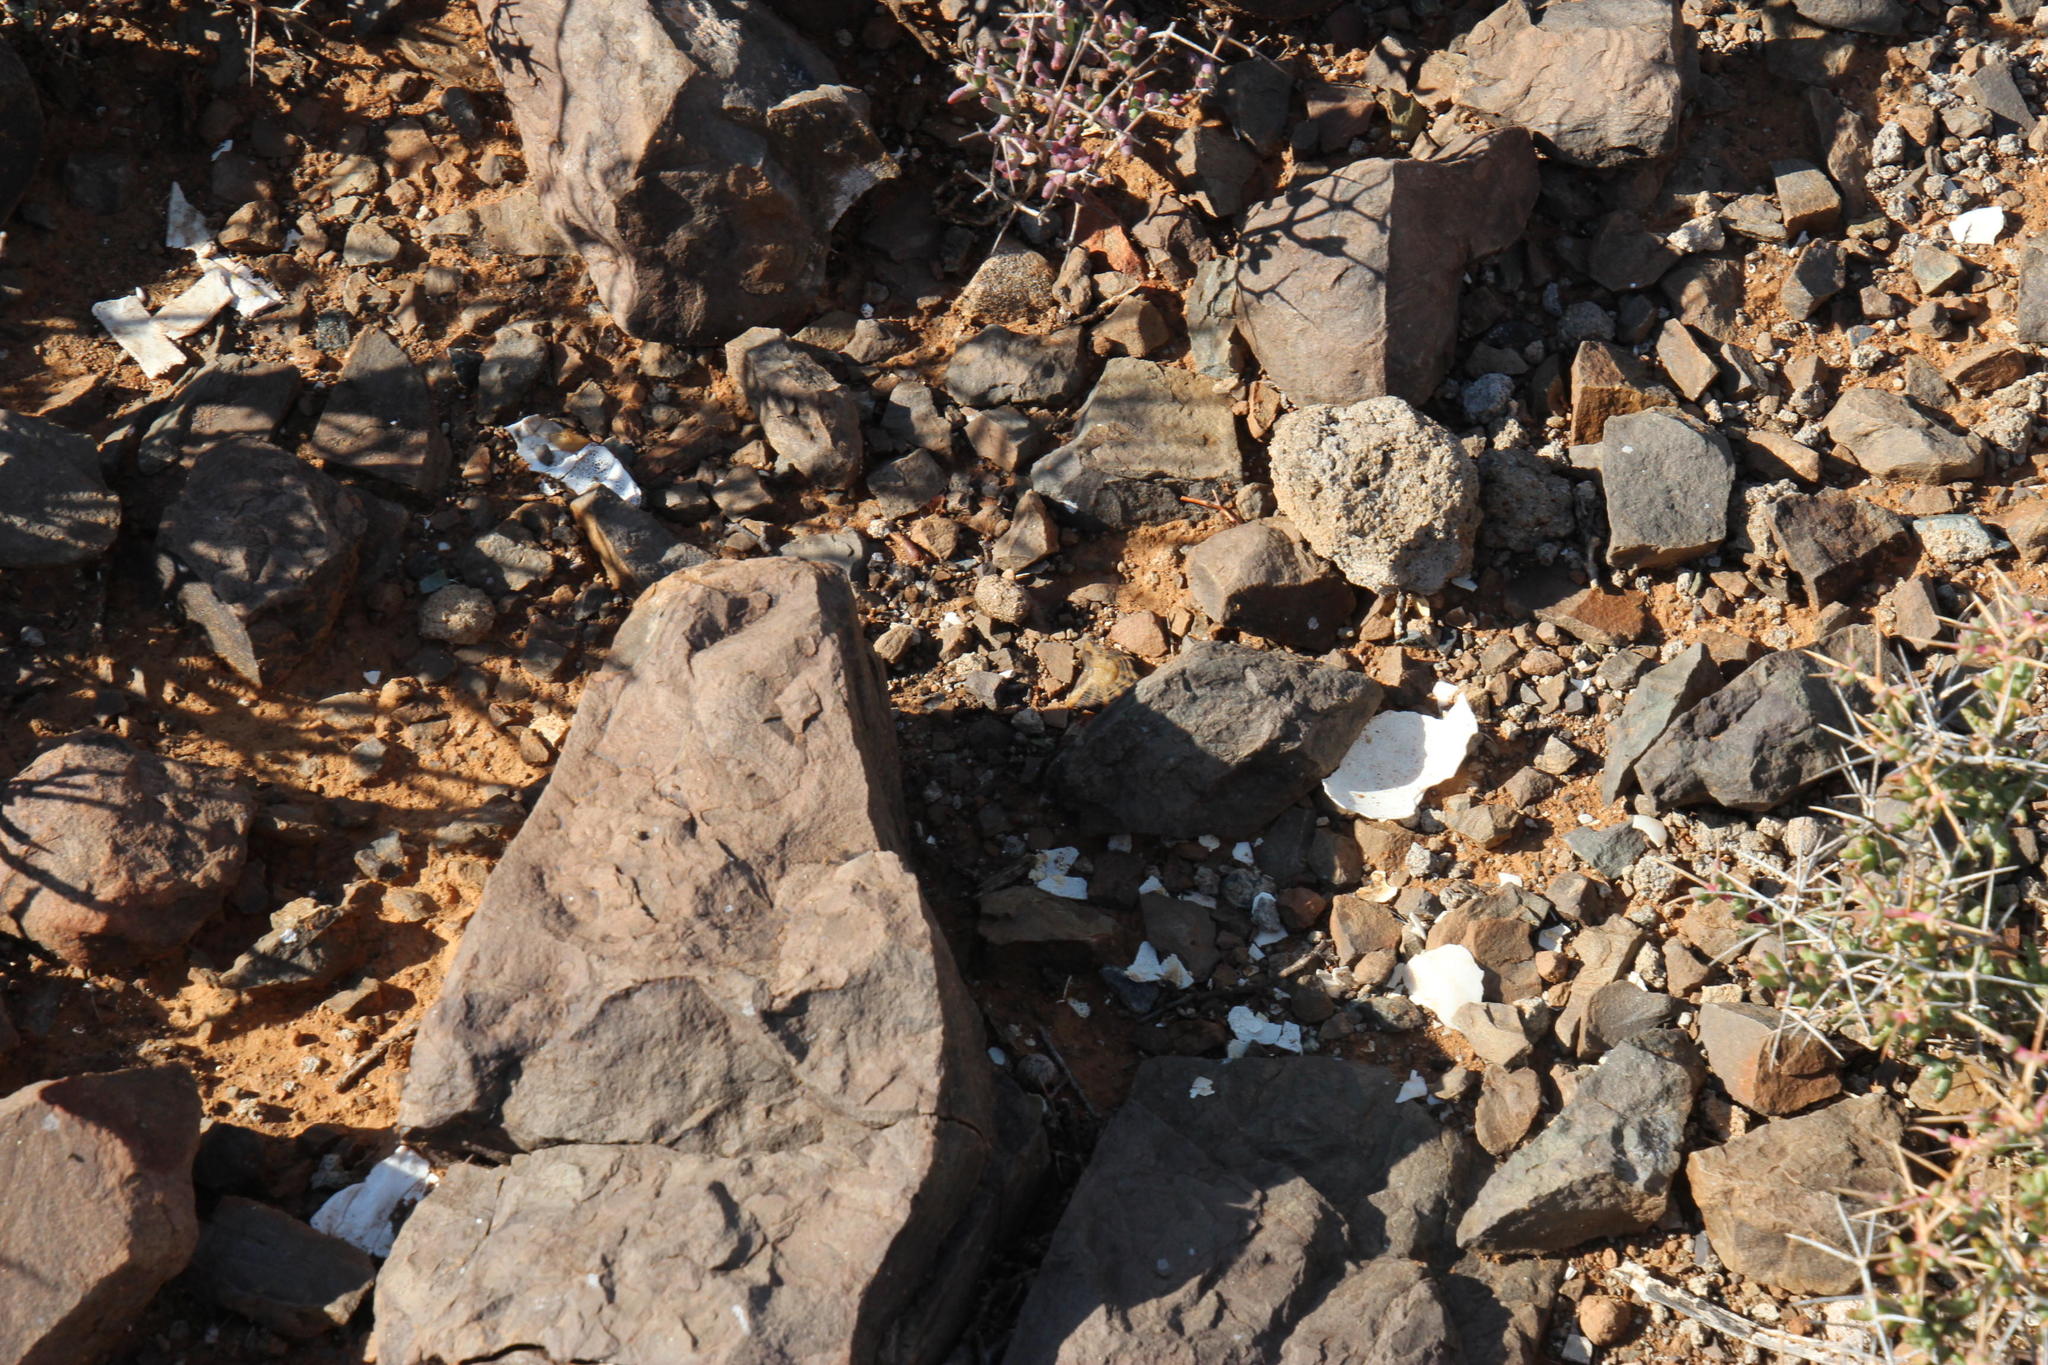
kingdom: Animalia
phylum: Chordata
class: Testudines
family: Testudinidae
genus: Psammobates
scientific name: Psammobates tentorius
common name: Tent tortoise
